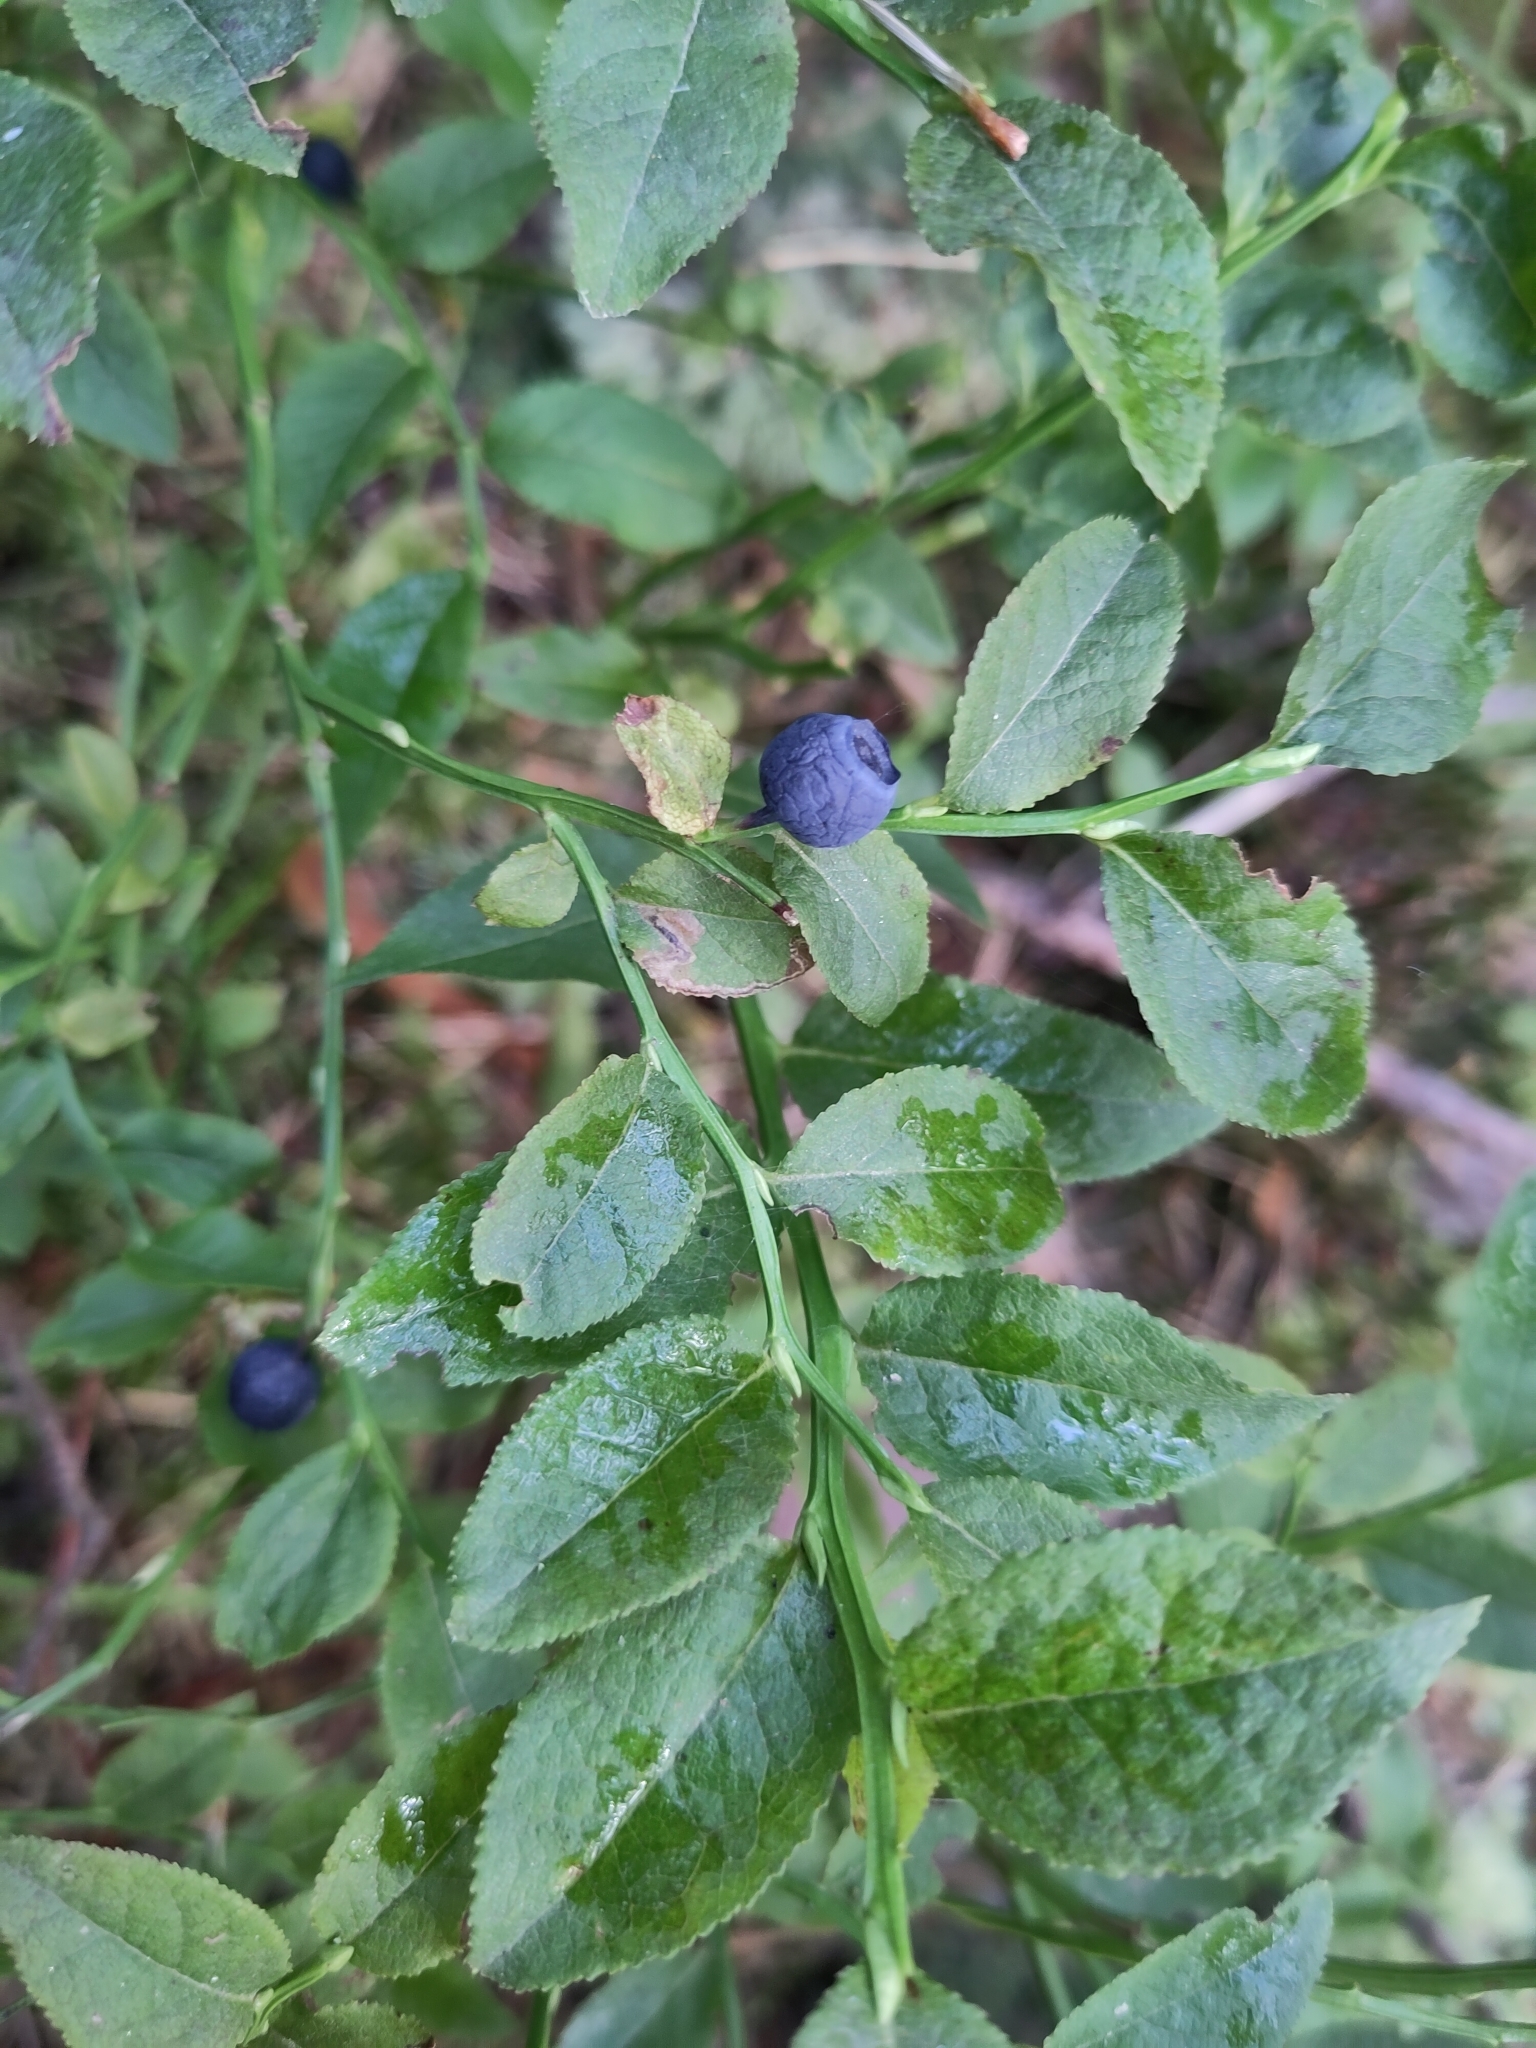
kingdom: Plantae
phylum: Tracheophyta
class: Magnoliopsida
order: Ericales
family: Ericaceae
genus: Vaccinium
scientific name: Vaccinium myrtillus
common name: Bilberry
